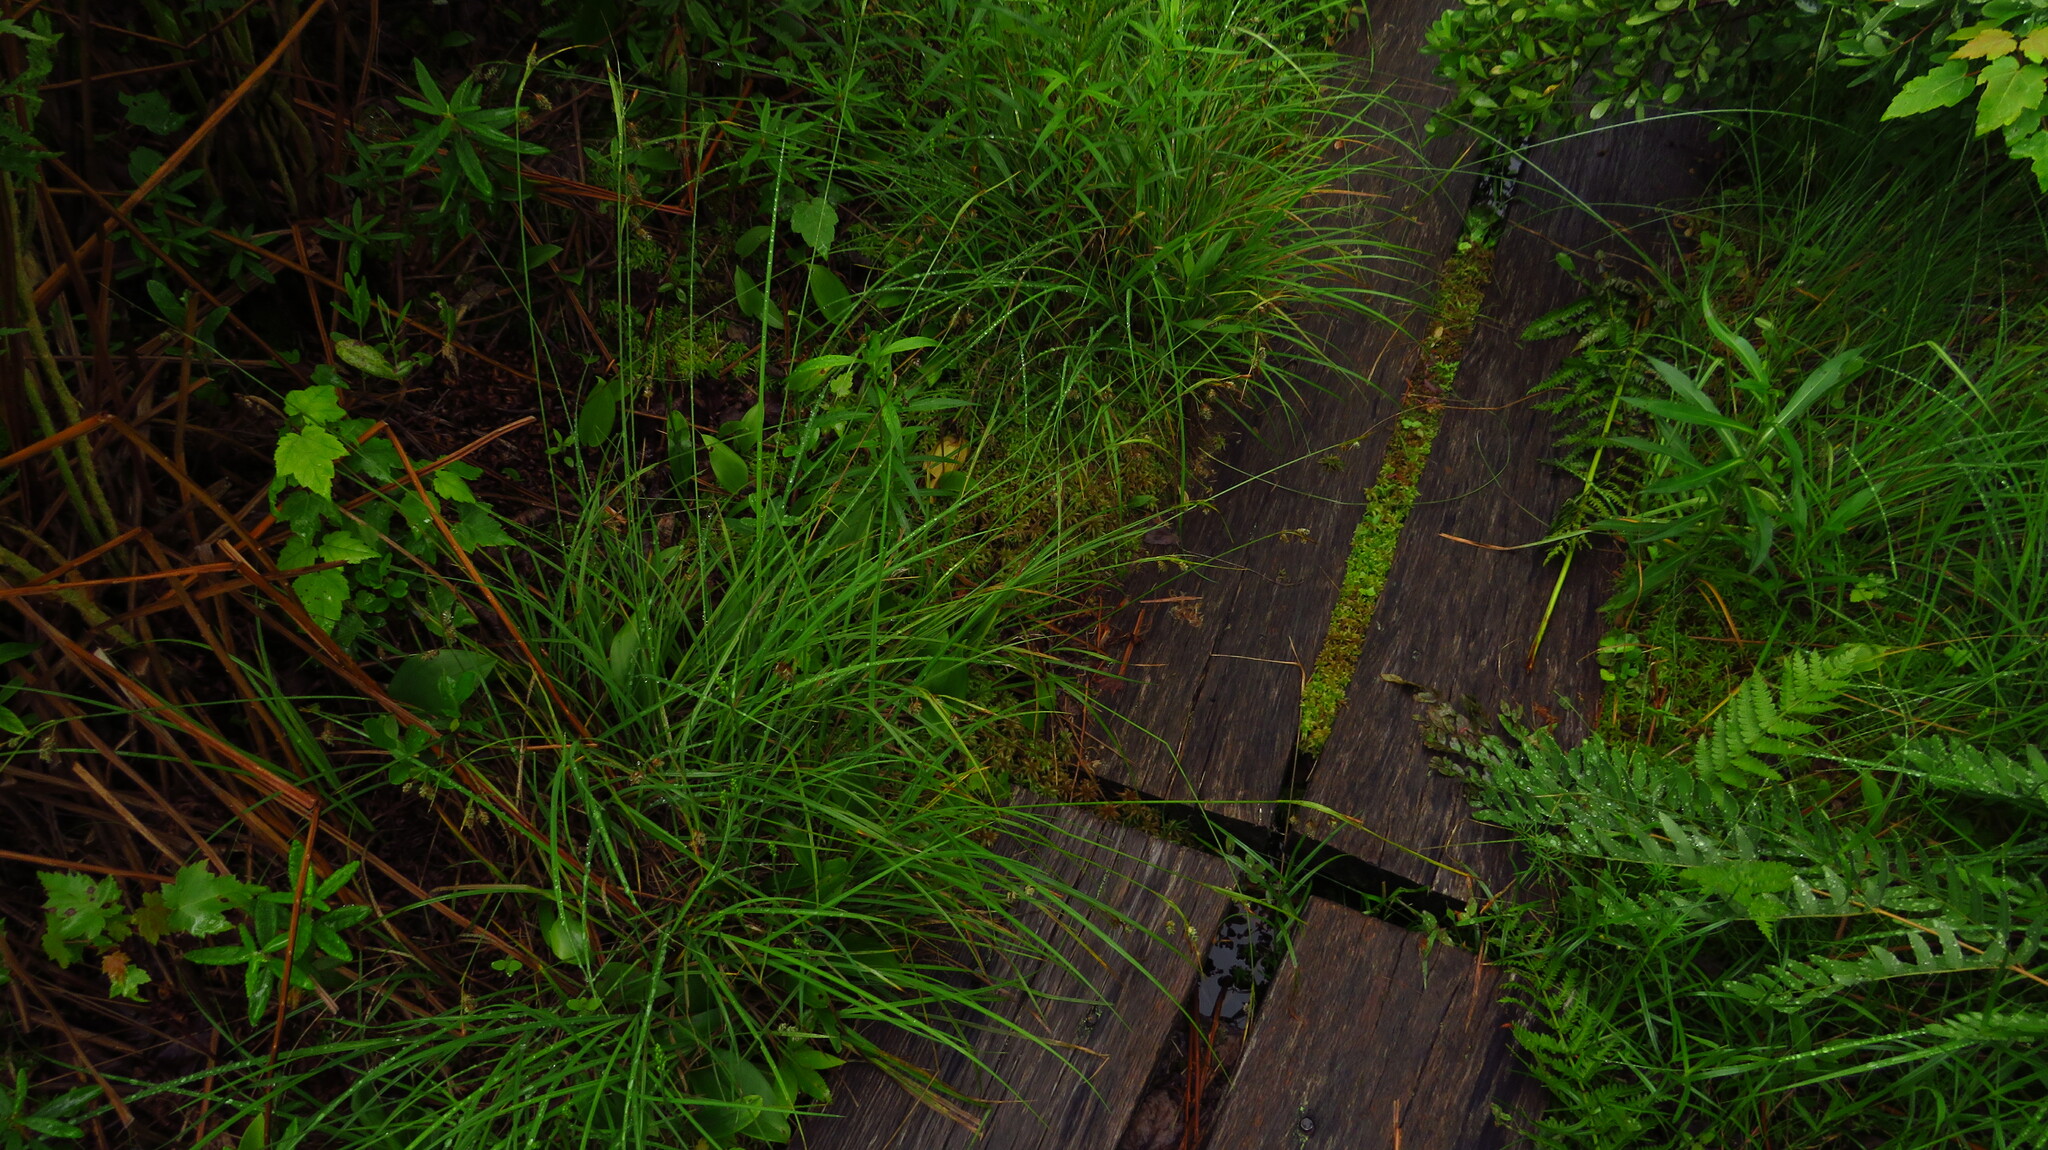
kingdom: Plantae
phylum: Tracheophyta
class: Liliopsida
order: Poales
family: Cyperaceae
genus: Carex
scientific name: Carex magellanica
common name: Bog sedge
